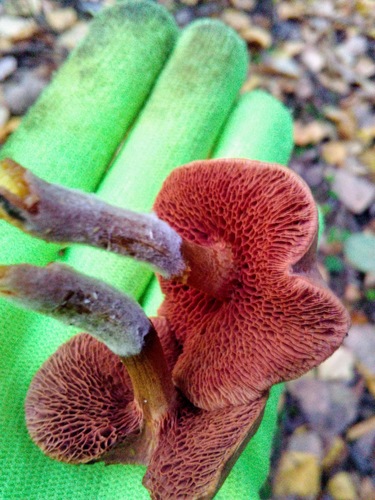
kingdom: Fungi
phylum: Basidiomycota
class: Agaricomycetes
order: Boletales
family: Boletaceae
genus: Chalciporus
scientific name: Chalciporus piperatus
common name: Peppery bolete
